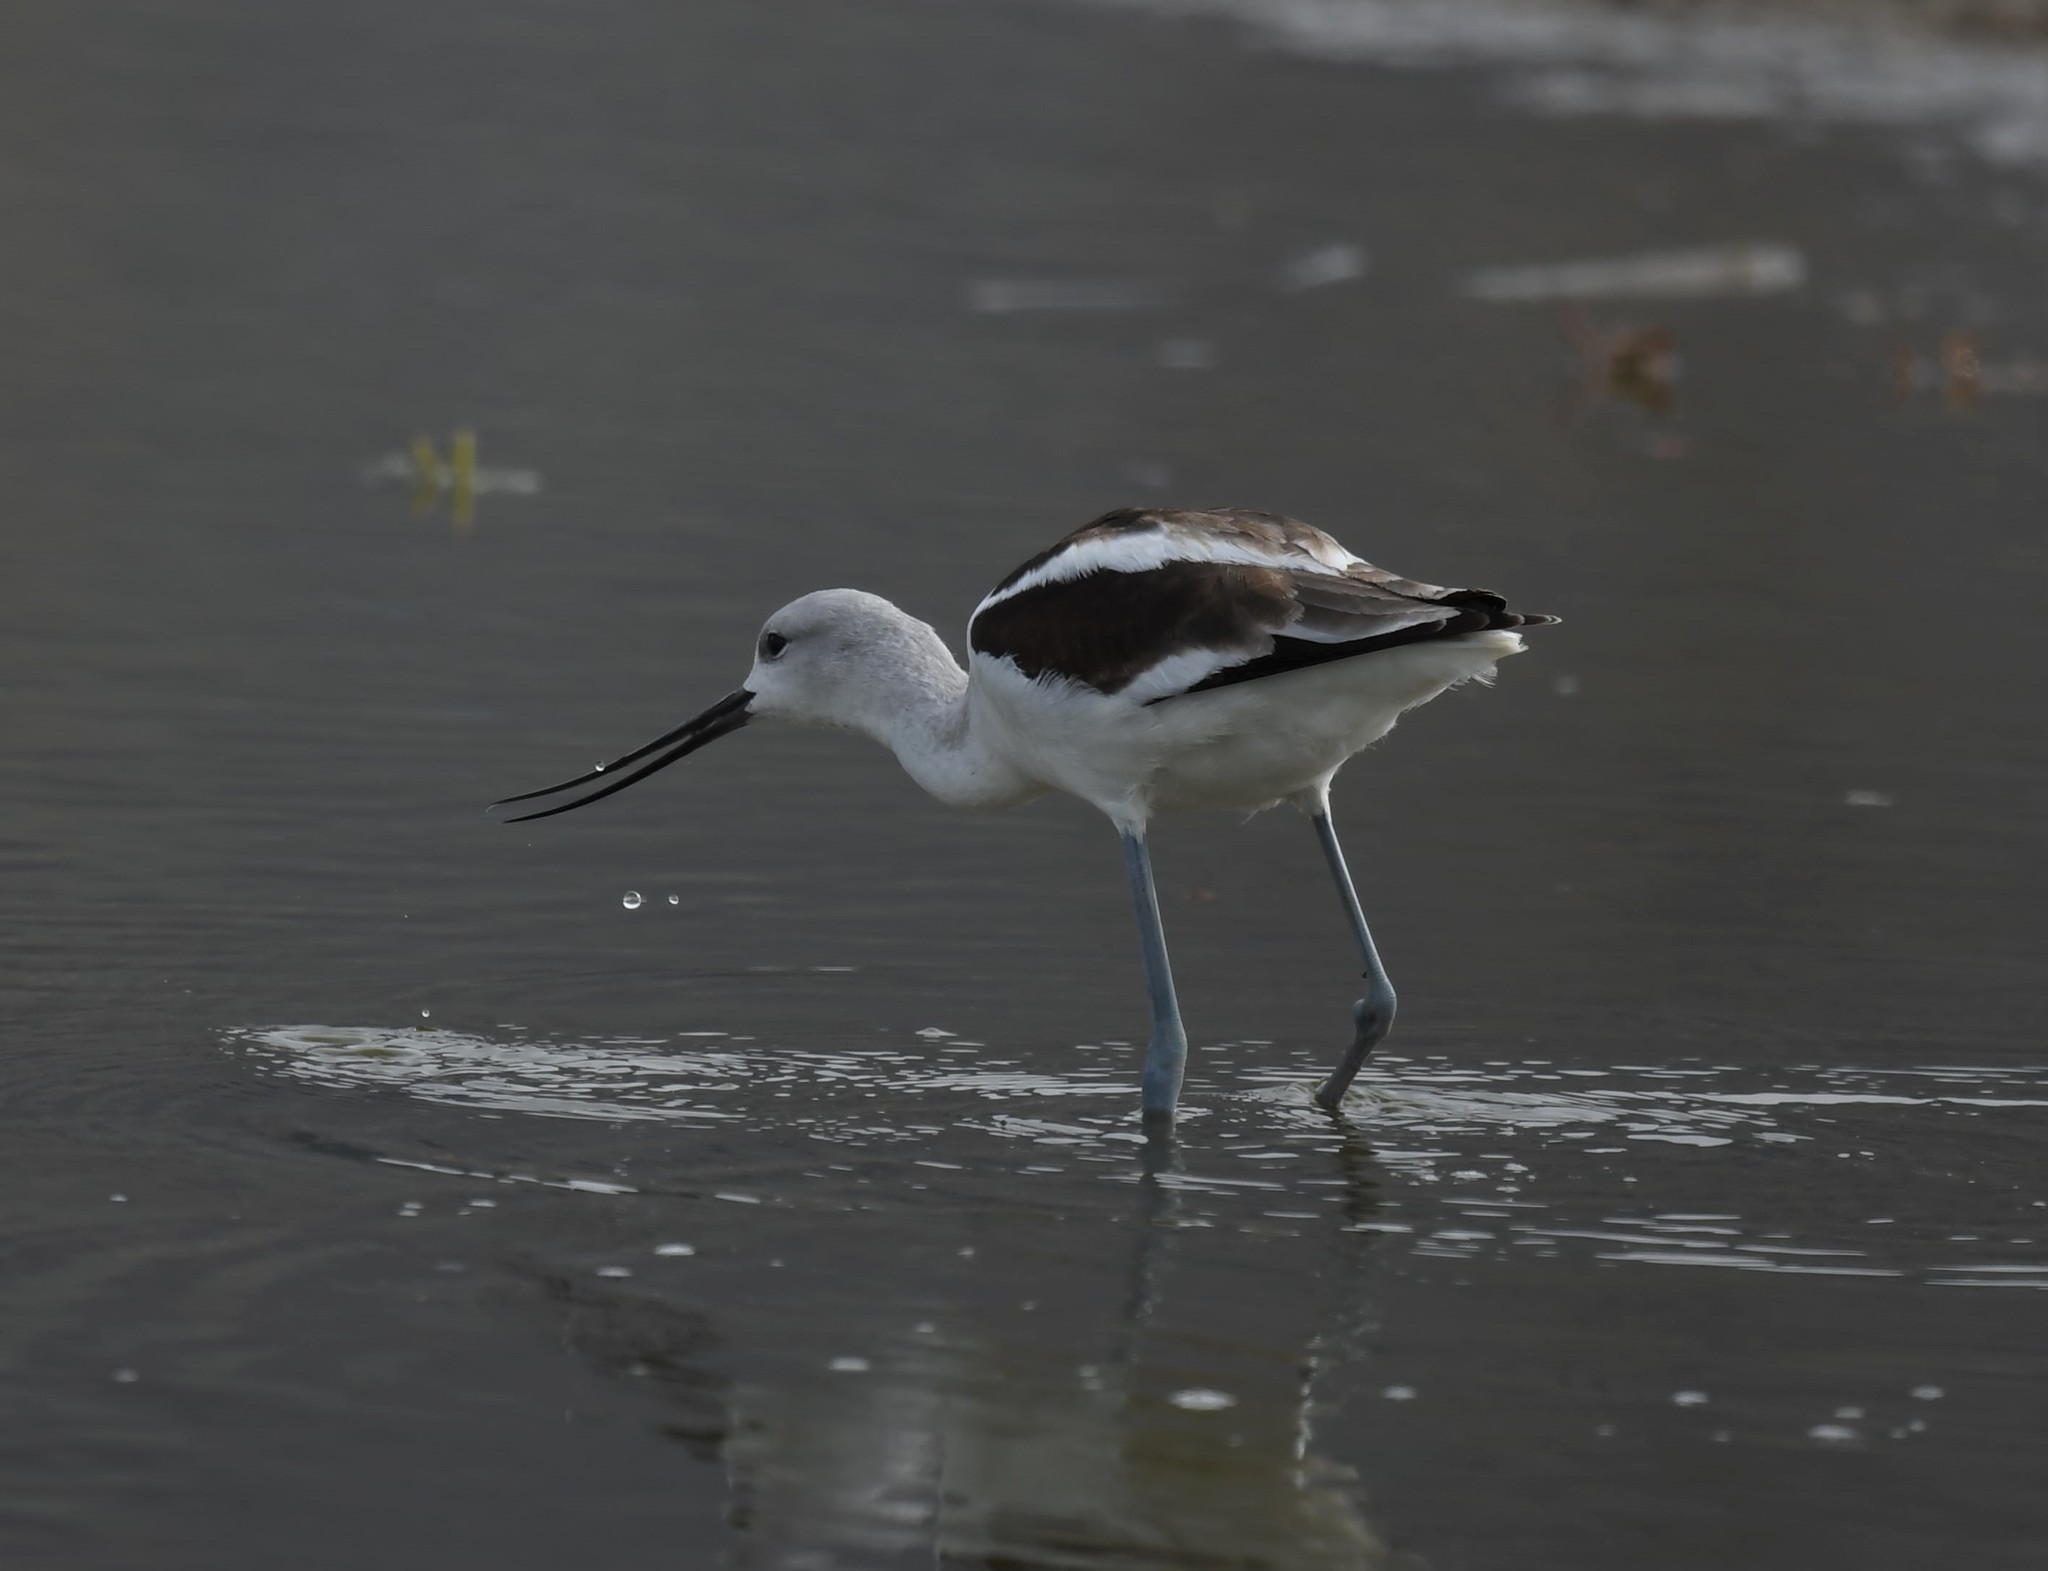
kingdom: Animalia
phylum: Chordata
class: Aves
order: Charadriiformes
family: Recurvirostridae
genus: Recurvirostra
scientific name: Recurvirostra americana
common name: American avocet
